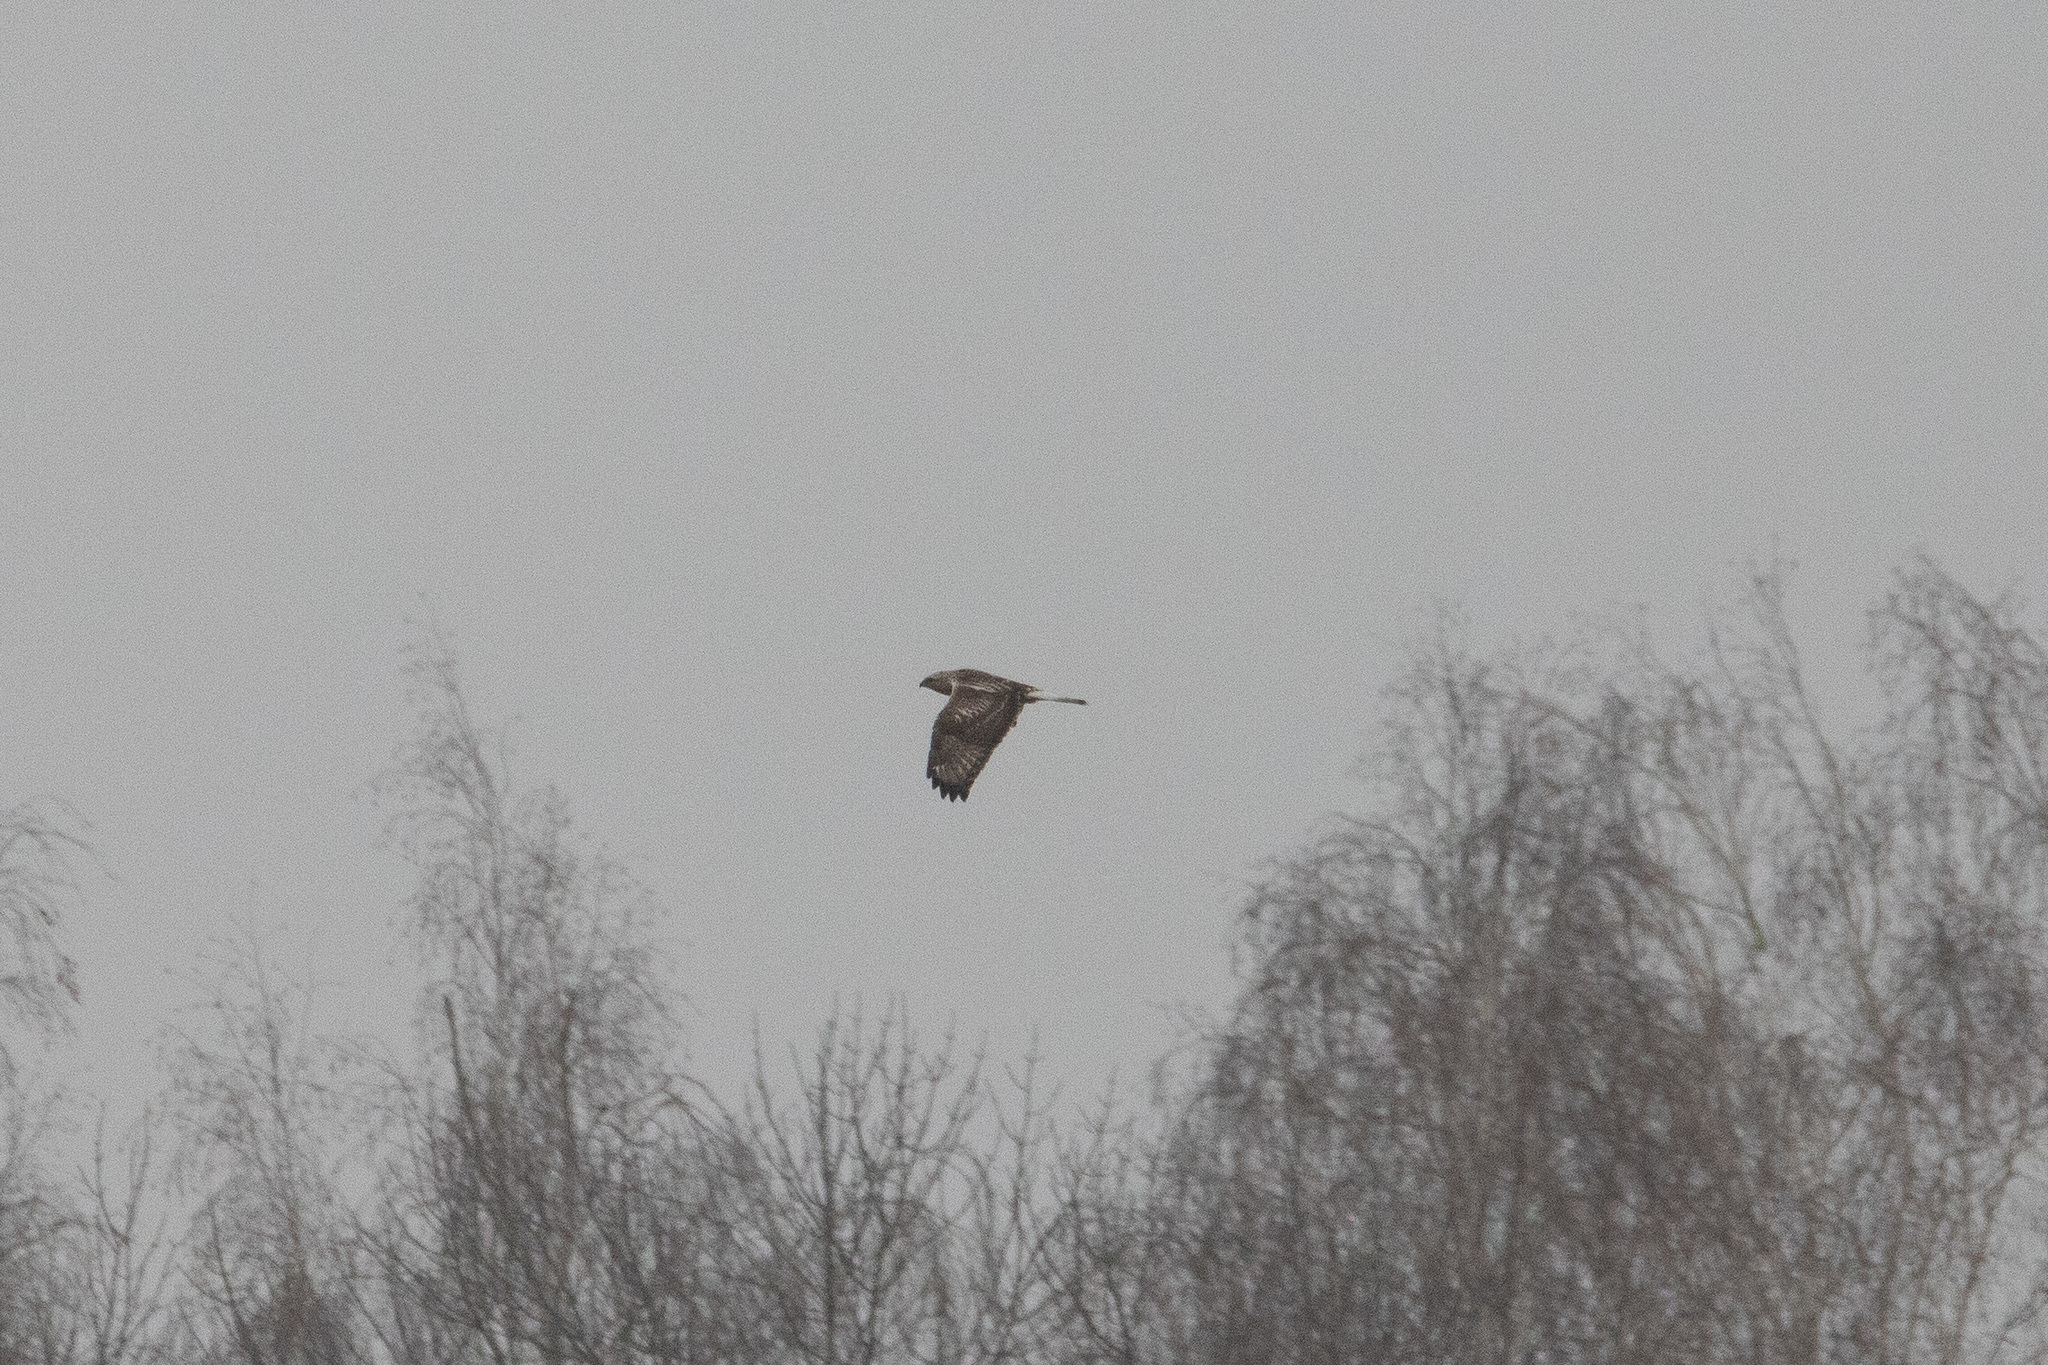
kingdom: Animalia
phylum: Chordata
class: Aves
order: Accipitriformes
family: Accipitridae
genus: Buteo
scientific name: Buteo lagopus
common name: Rough-legged buzzard
